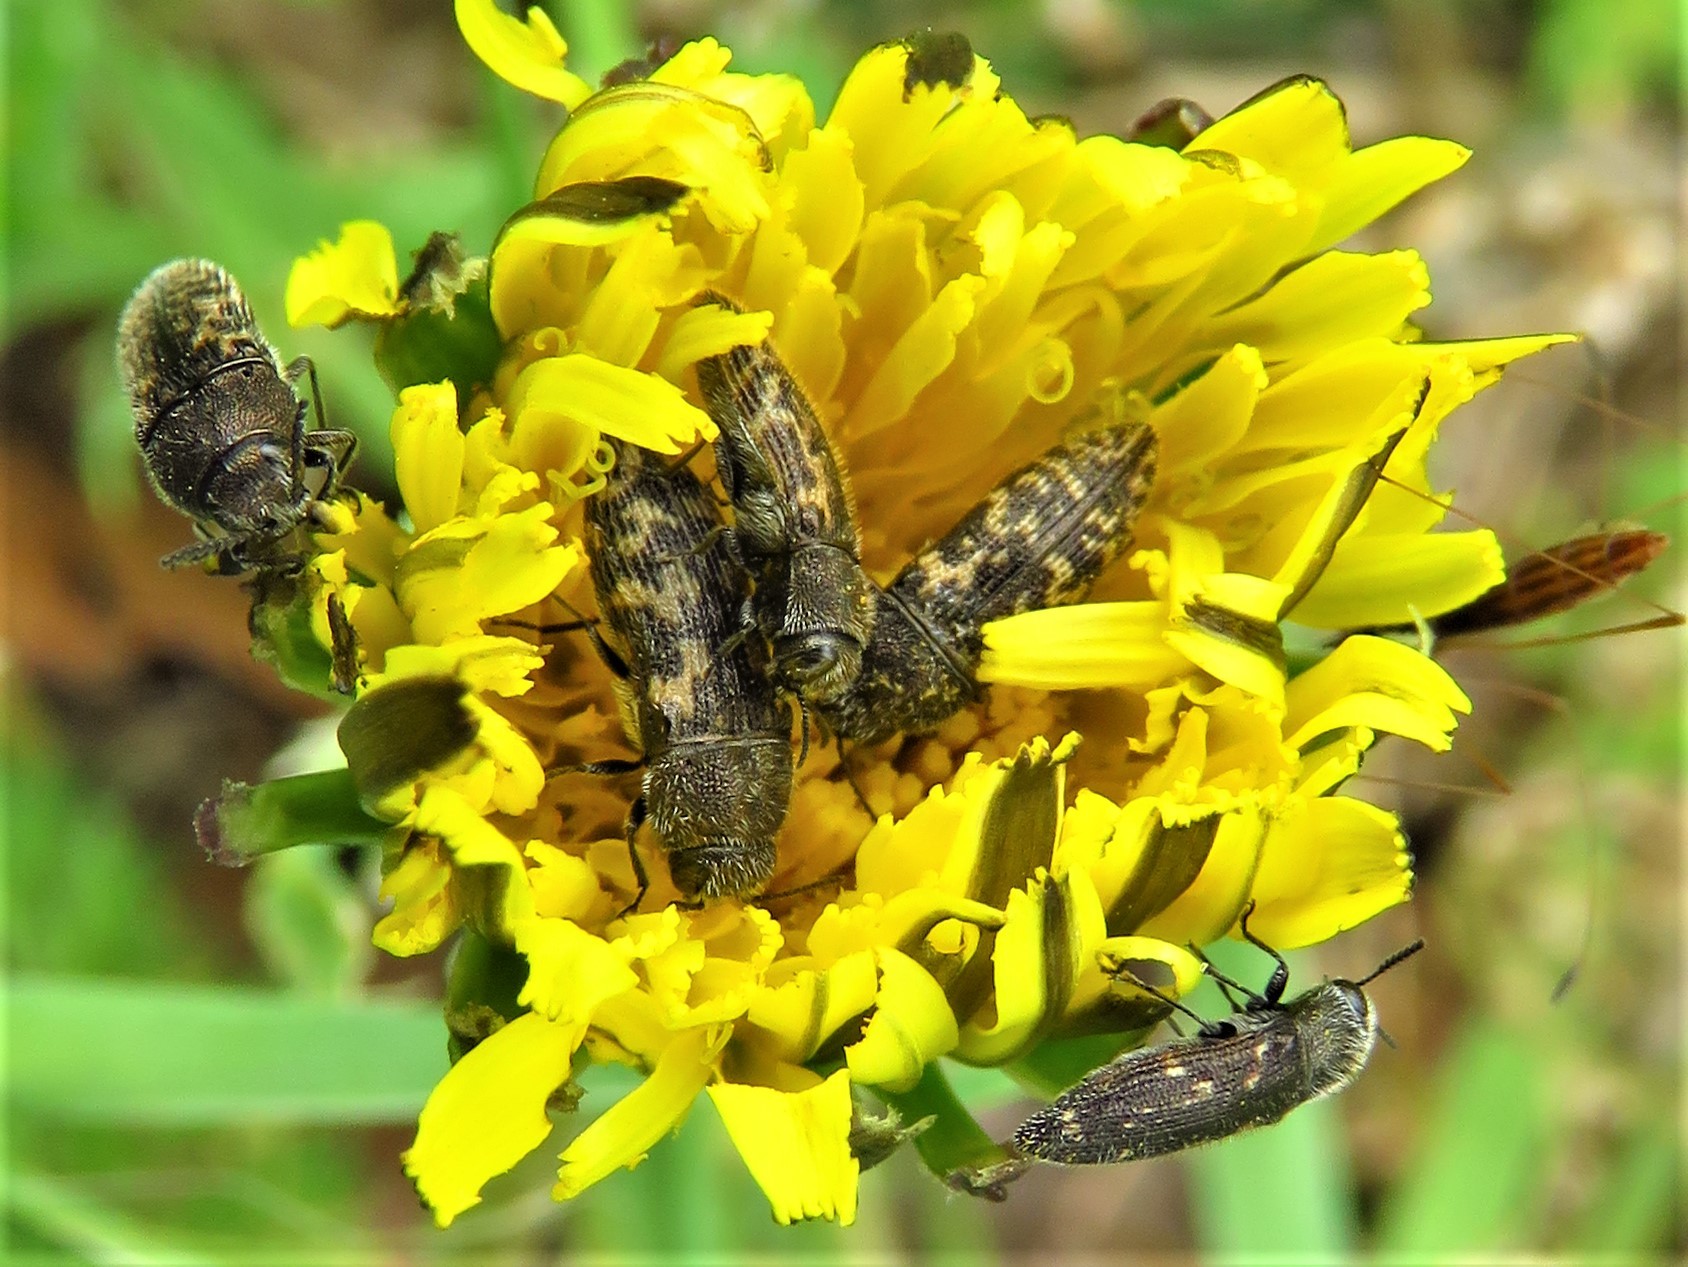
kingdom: Animalia
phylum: Arthropoda
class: Insecta
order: Coleoptera
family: Buprestidae
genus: Acmaeodera
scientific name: Acmaeodera neglecta
